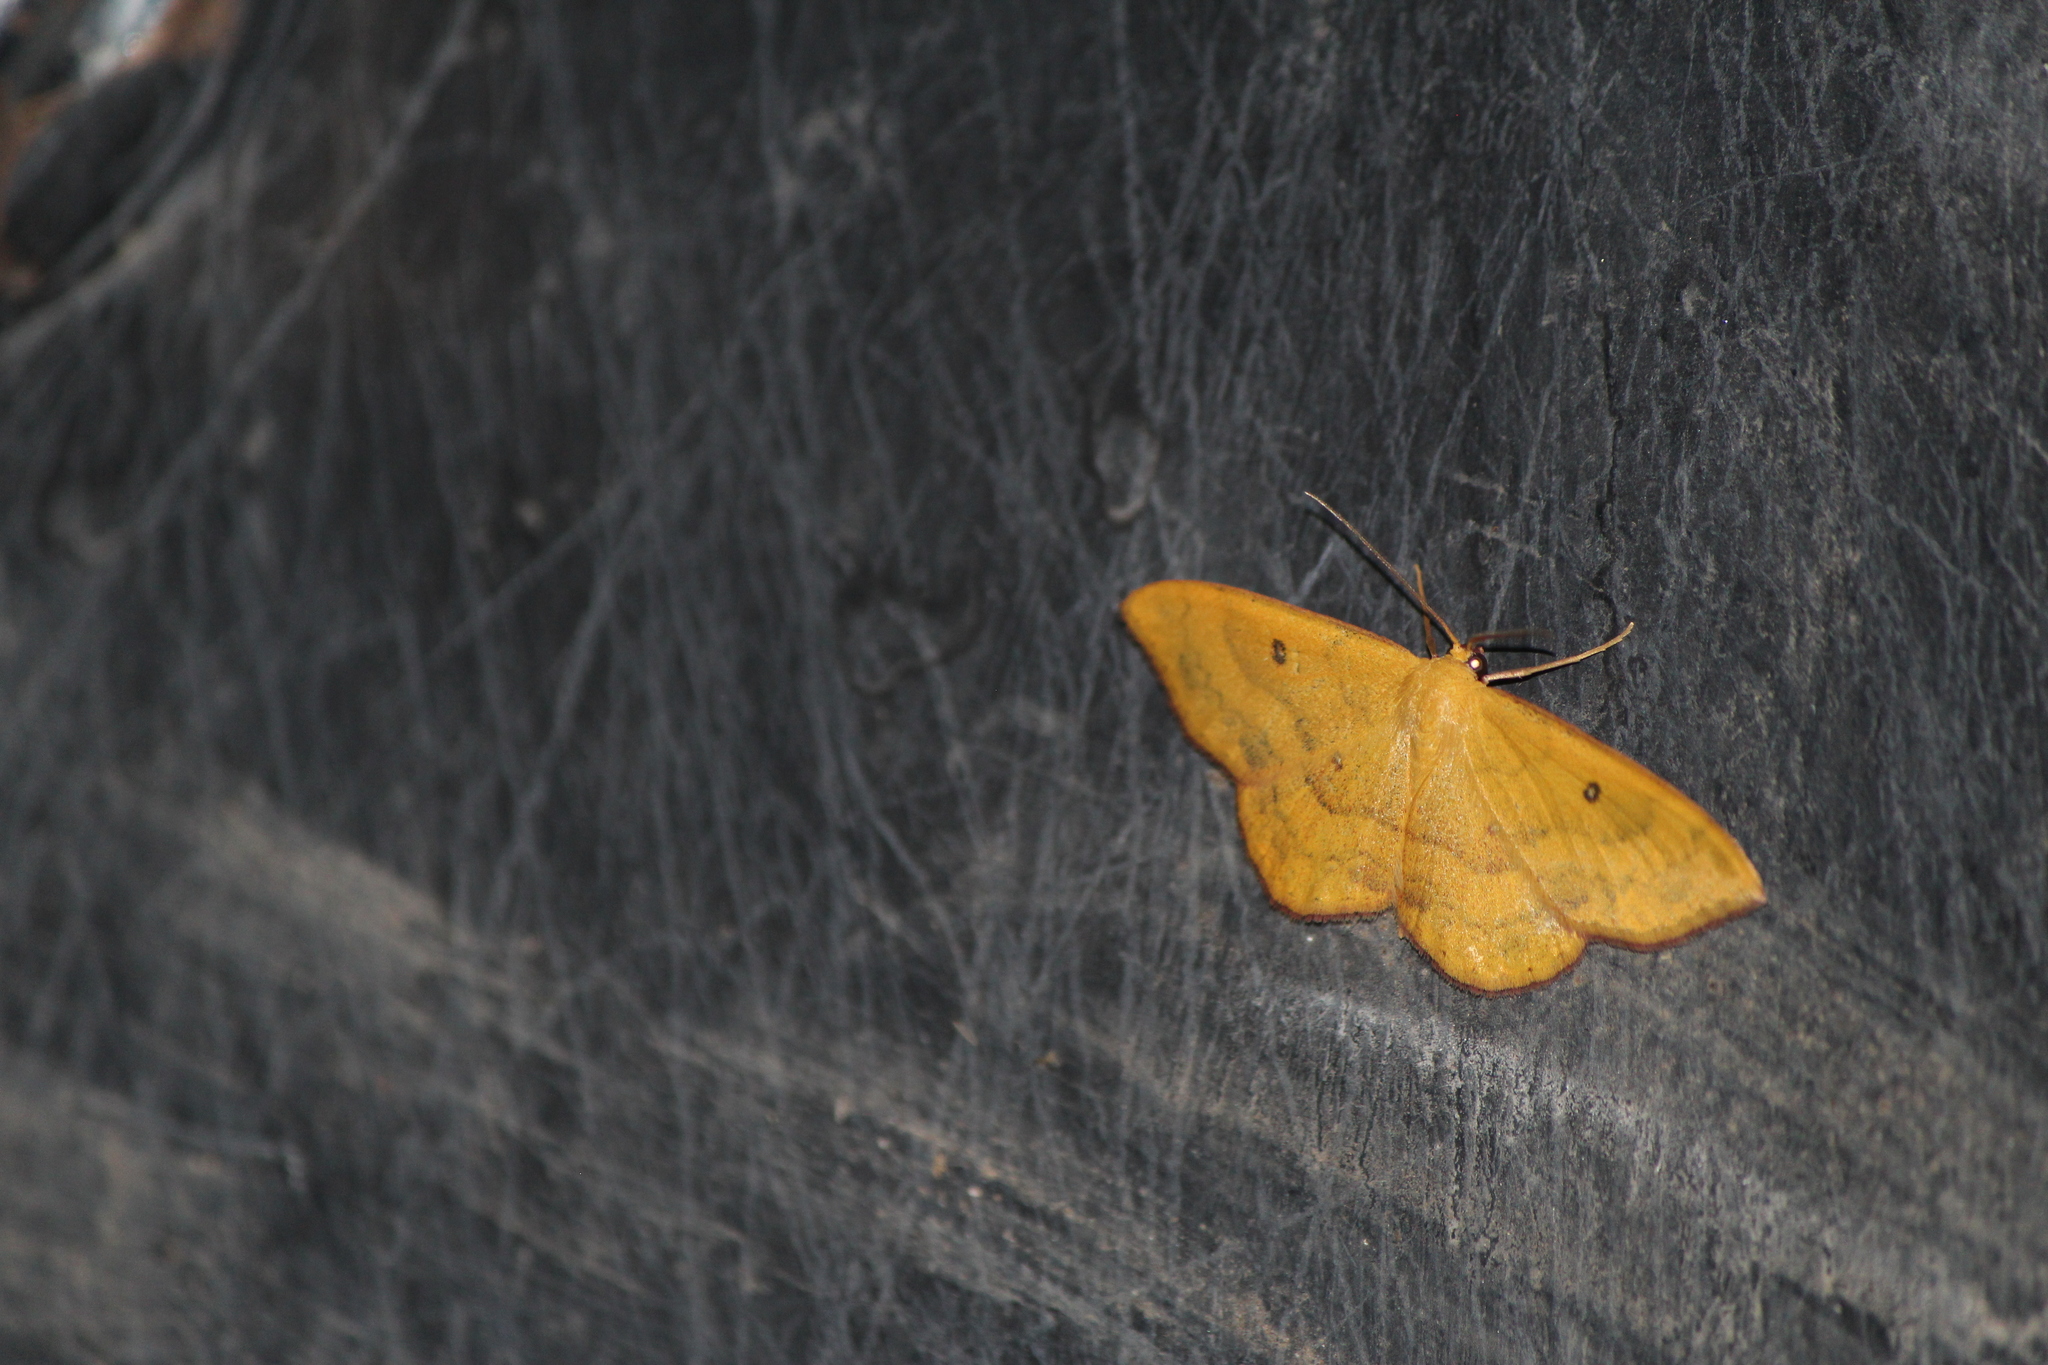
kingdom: Animalia
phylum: Arthropoda
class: Insecta
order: Lepidoptera
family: Geometridae
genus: Semaeopus
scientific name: Semaeopus ella
